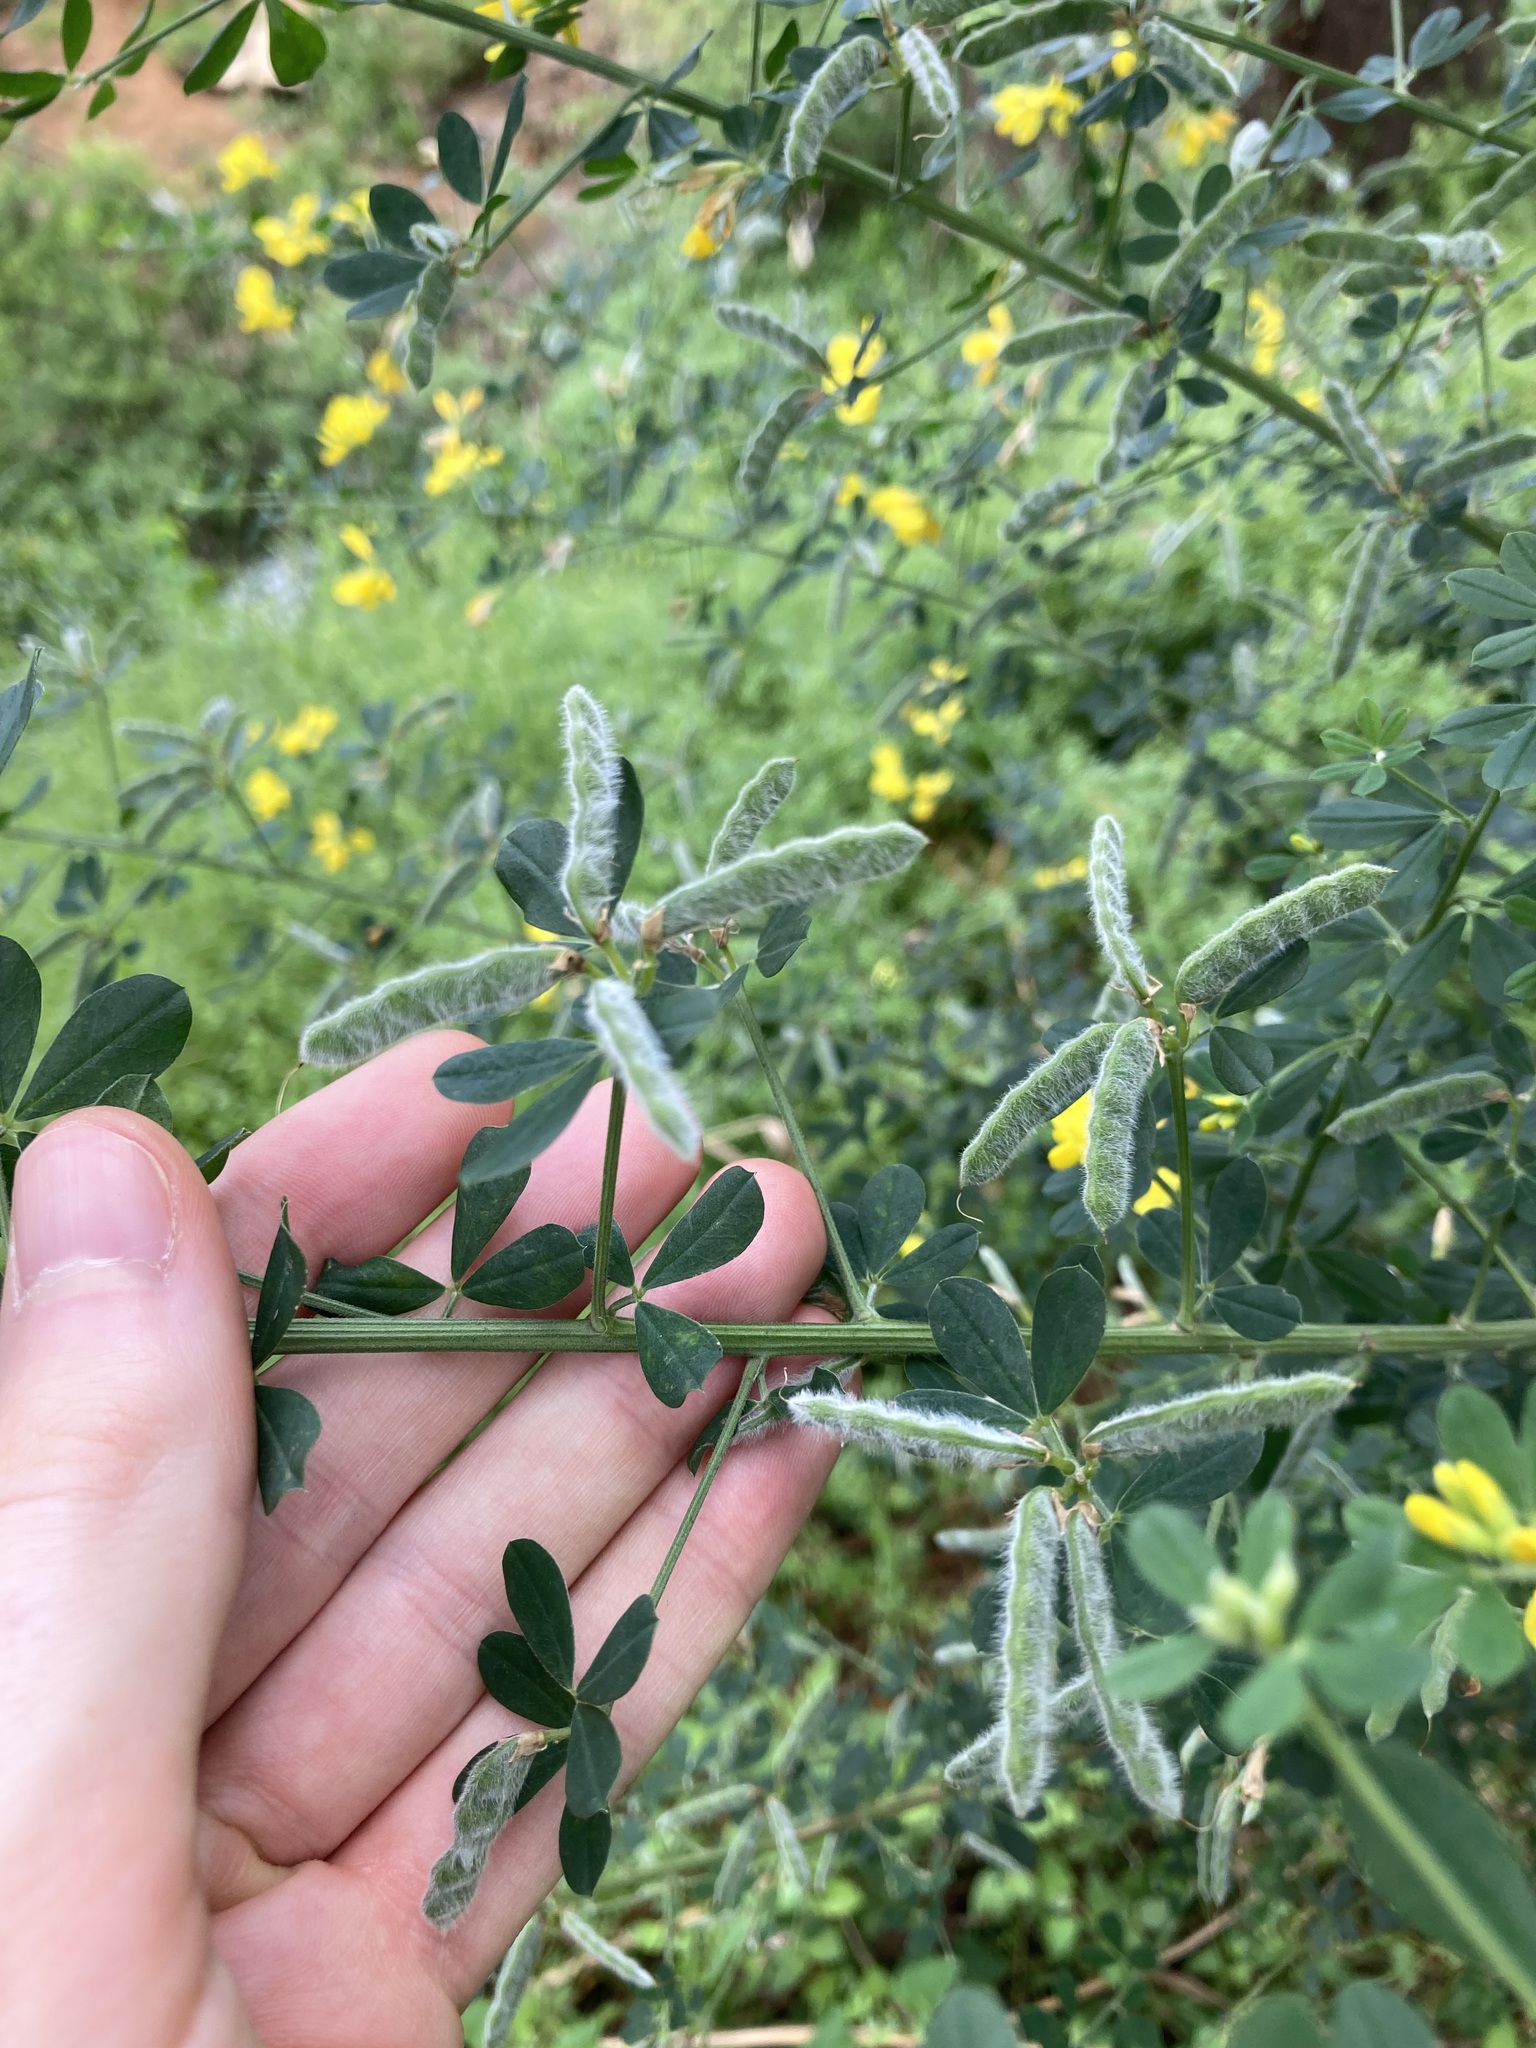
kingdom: Plantae
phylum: Tracheophyta
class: Magnoliopsida
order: Fabales
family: Fabaceae
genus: Genista
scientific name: Genista monspessulana
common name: Montpellier broom
